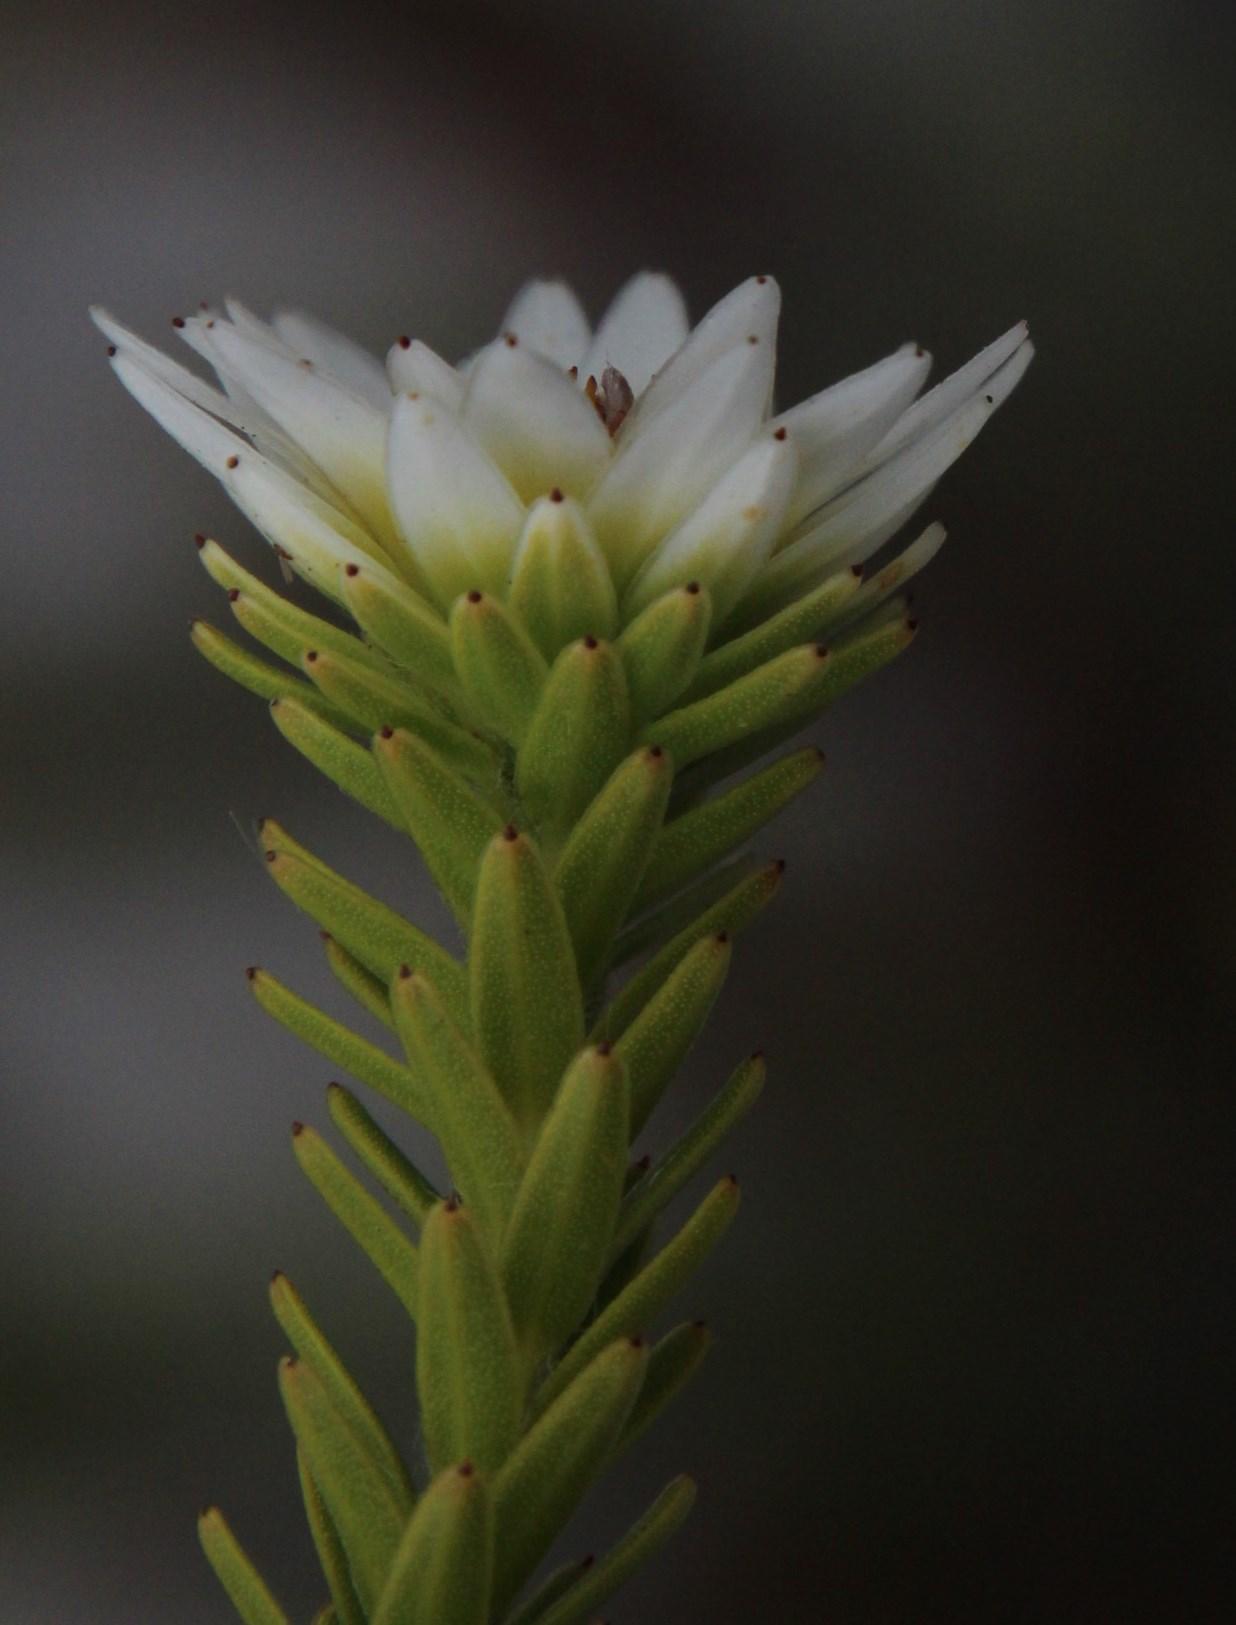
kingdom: Plantae
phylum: Tracheophyta
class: Magnoliopsida
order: Bruniales
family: Bruniaceae
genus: Staavia
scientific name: Staavia dodii
